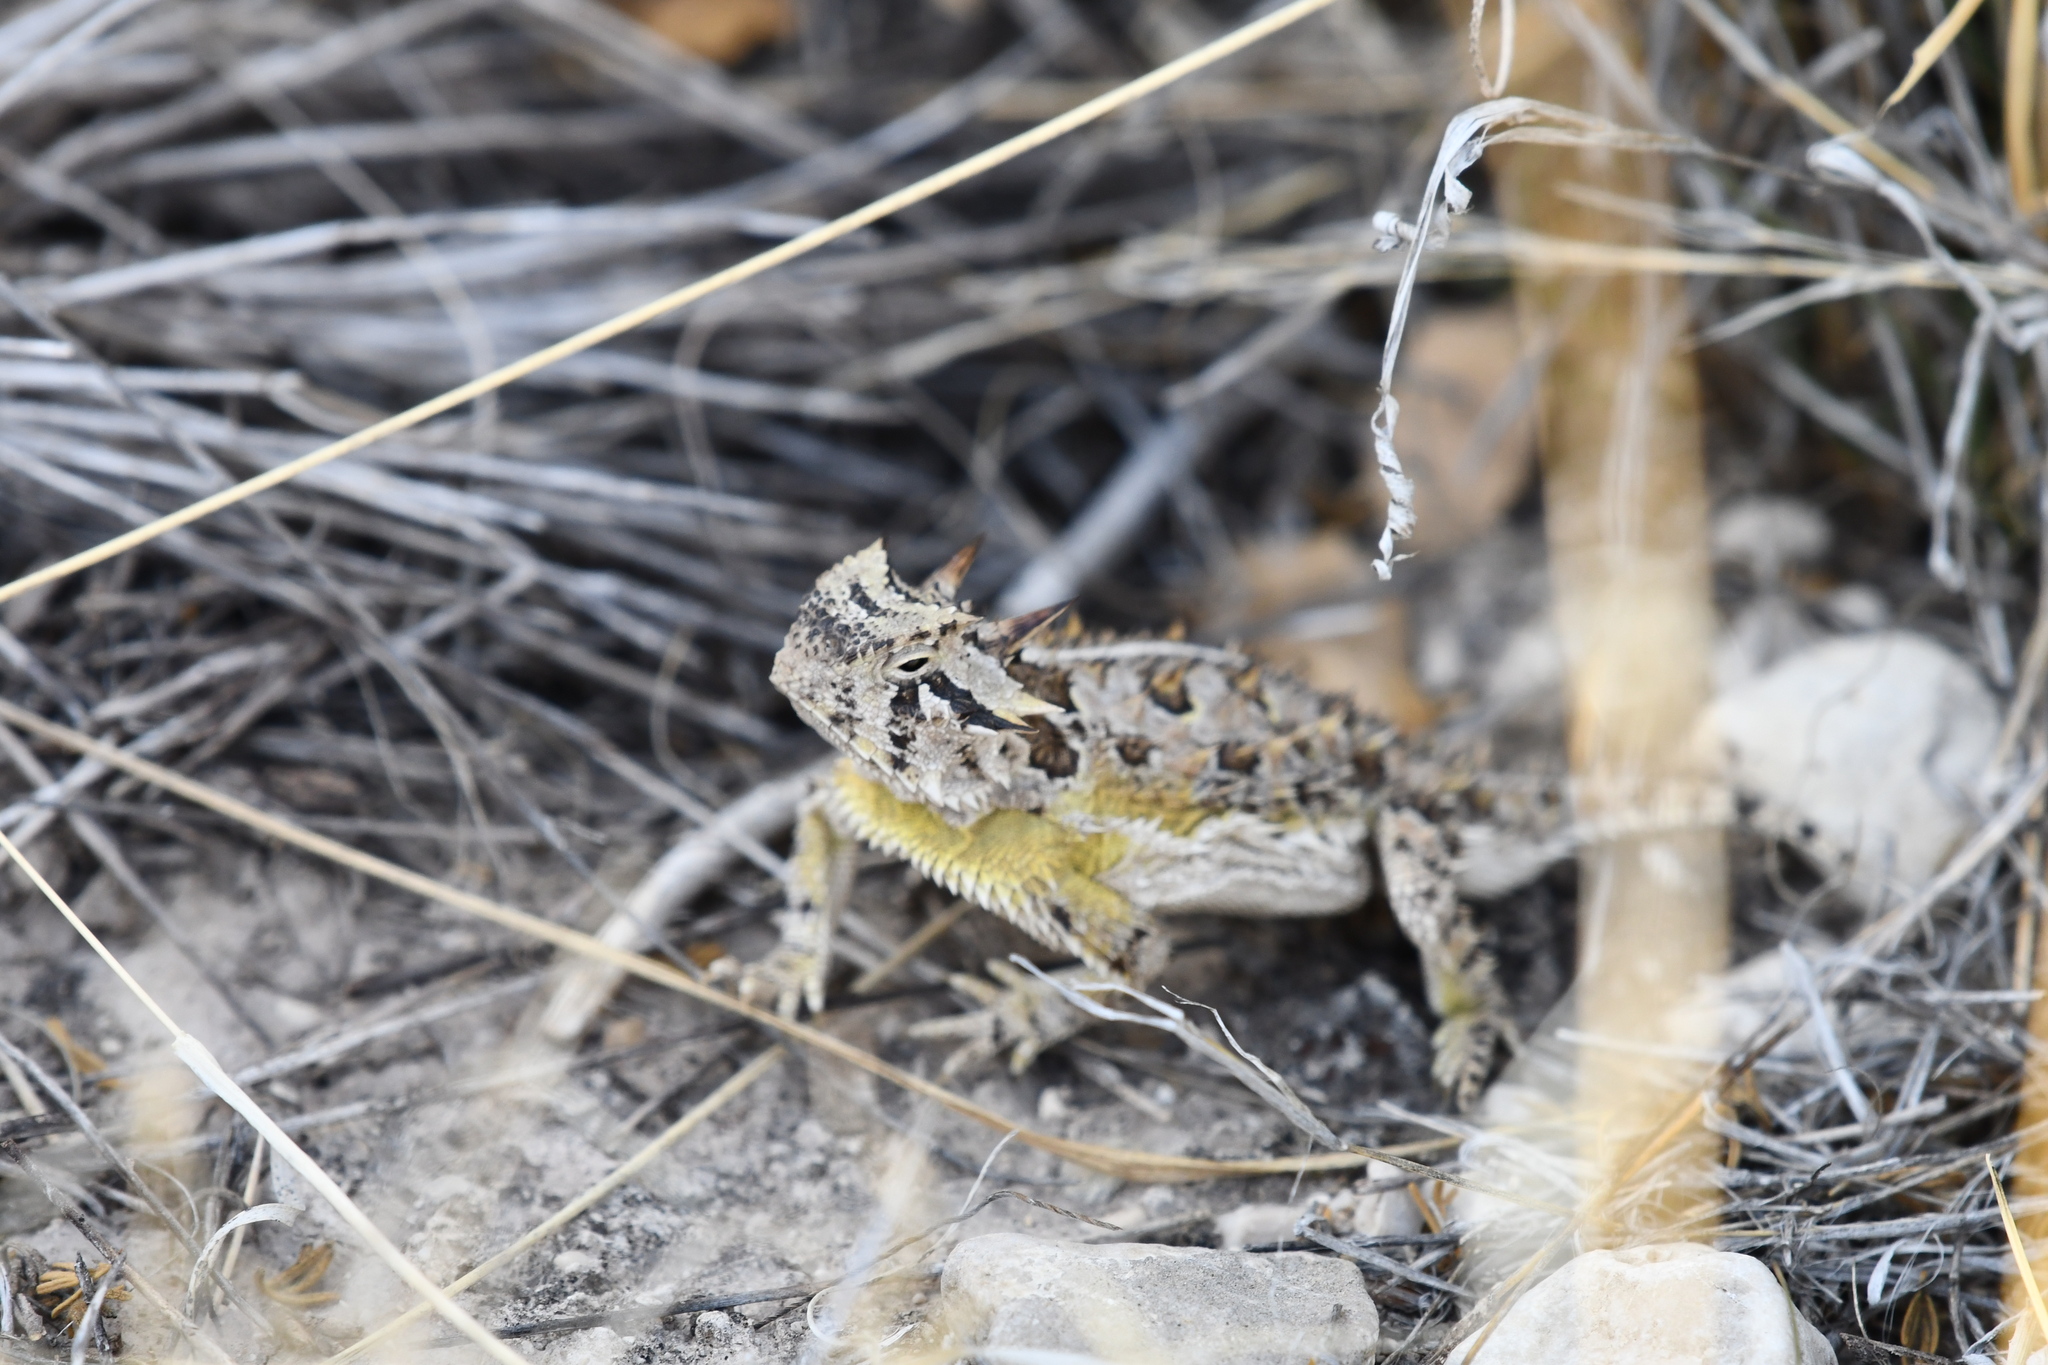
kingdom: Animalia
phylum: Chordata
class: Squamata
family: Phrynosomatidae
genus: Phrynosoma
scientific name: Phrynosoma cornutum
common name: Texas horned lizard
